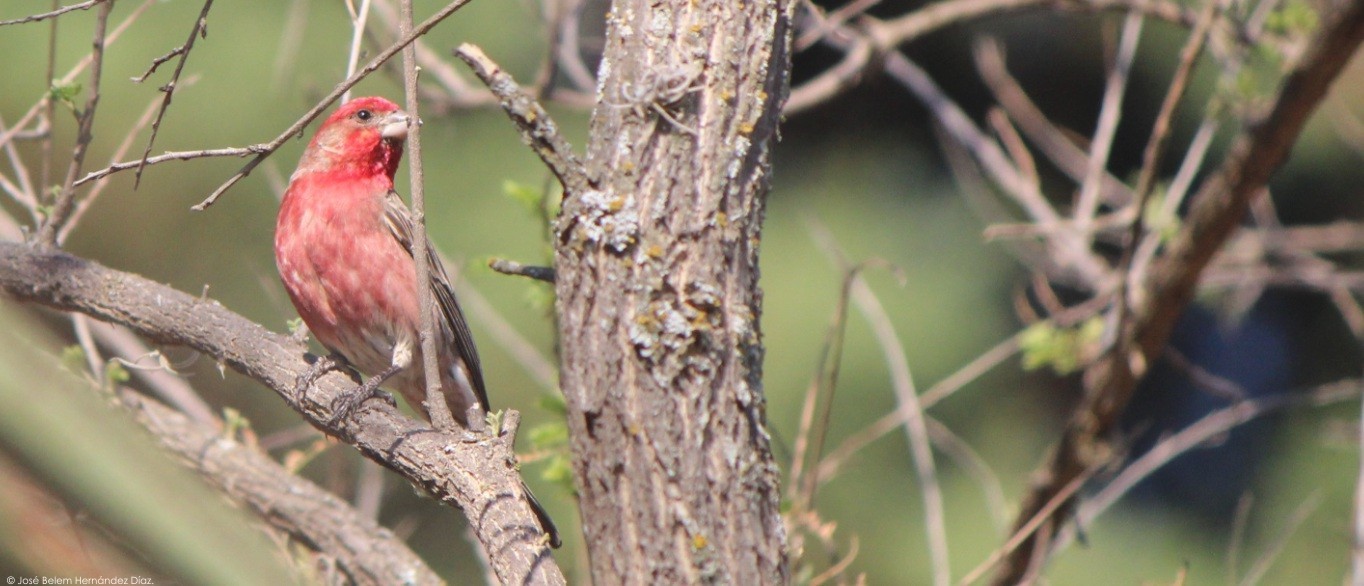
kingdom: Animalia
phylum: Chordata
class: Aves
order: Passeriformes
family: Fringillidae
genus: Haemorhous
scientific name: Haemorhous mexicanus
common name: House finch
